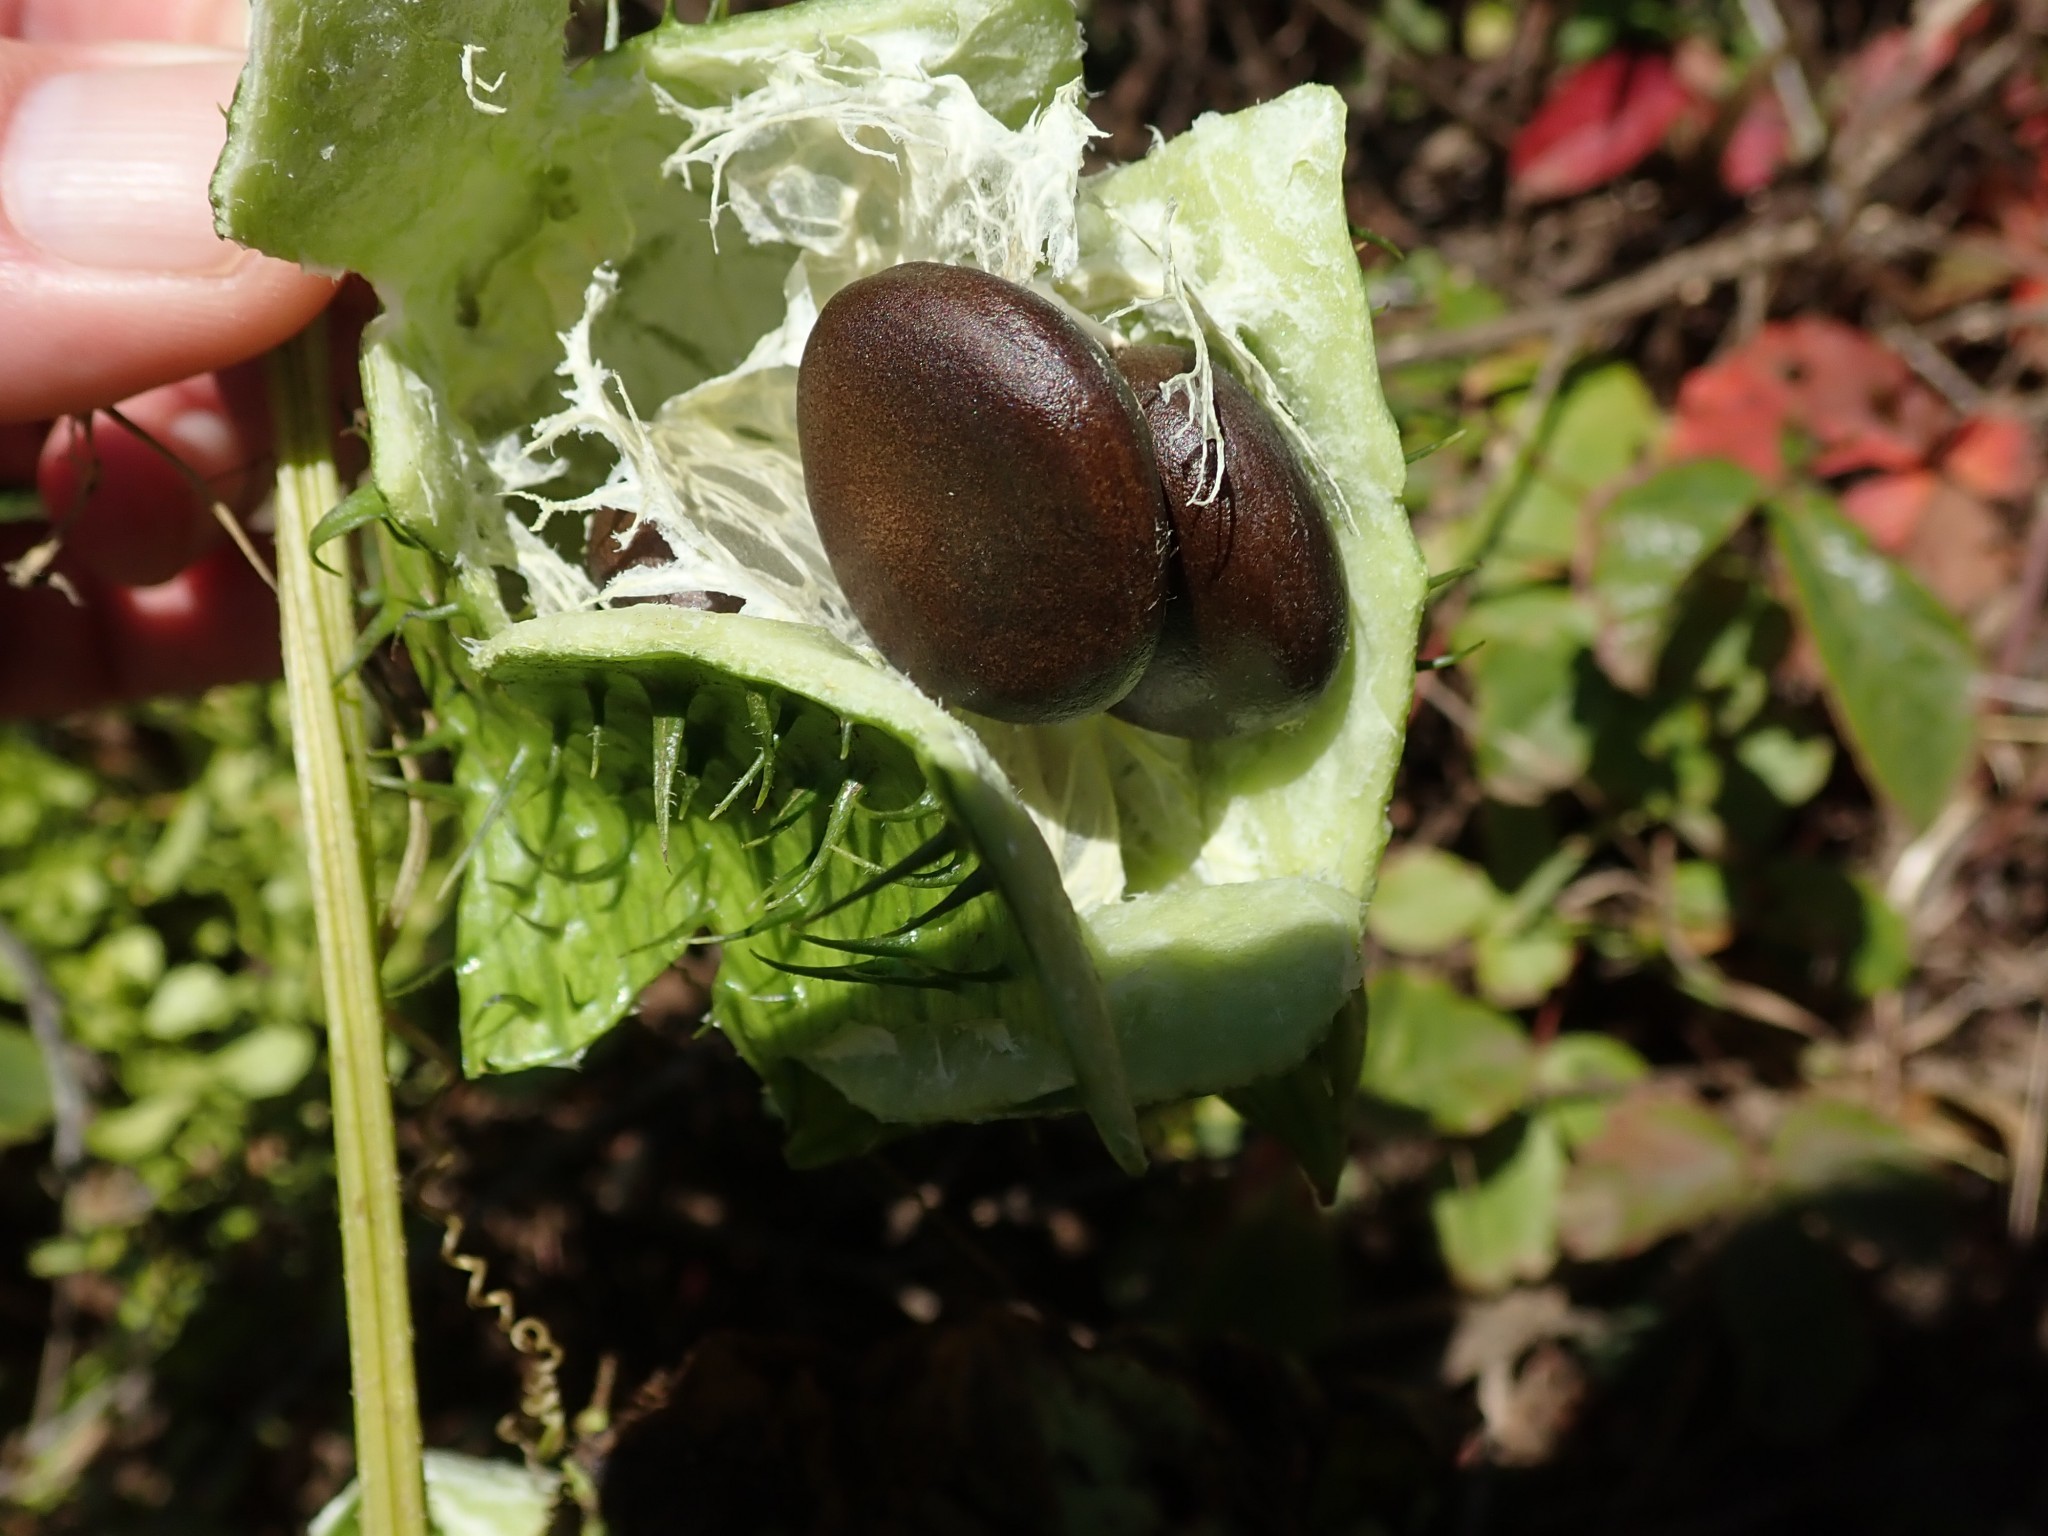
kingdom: Plantae
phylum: Tracheophyta
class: Magnoliopsida
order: Cucurbitales
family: Cucurbitaceae
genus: Marah
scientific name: Marah oregana
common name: Coastal manroot
